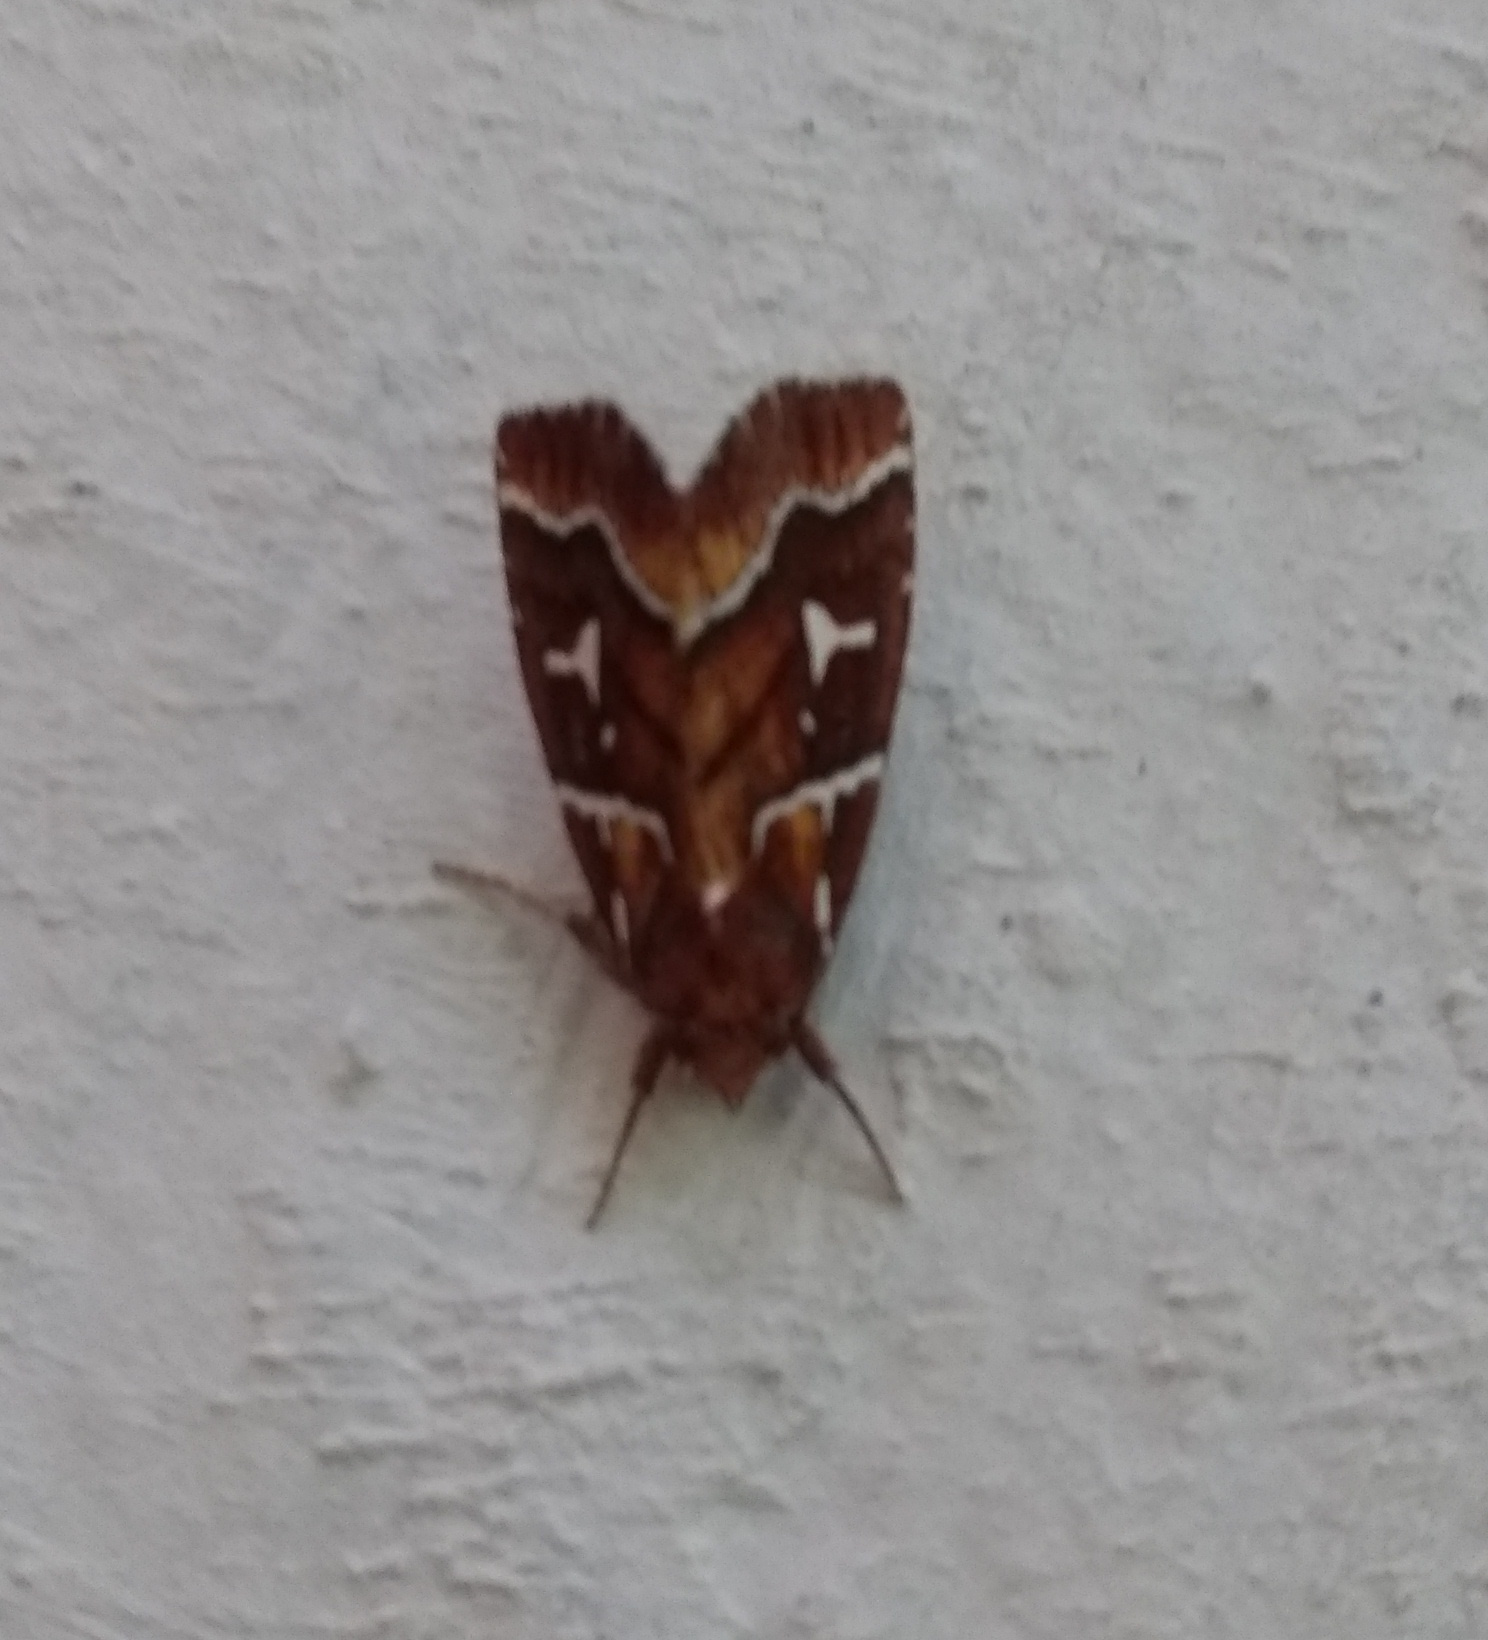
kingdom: Animalia
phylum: Arthropoda
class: Insecta
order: Lepidoptera
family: Noctuidae
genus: Selambina
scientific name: Selambina trajiciens
